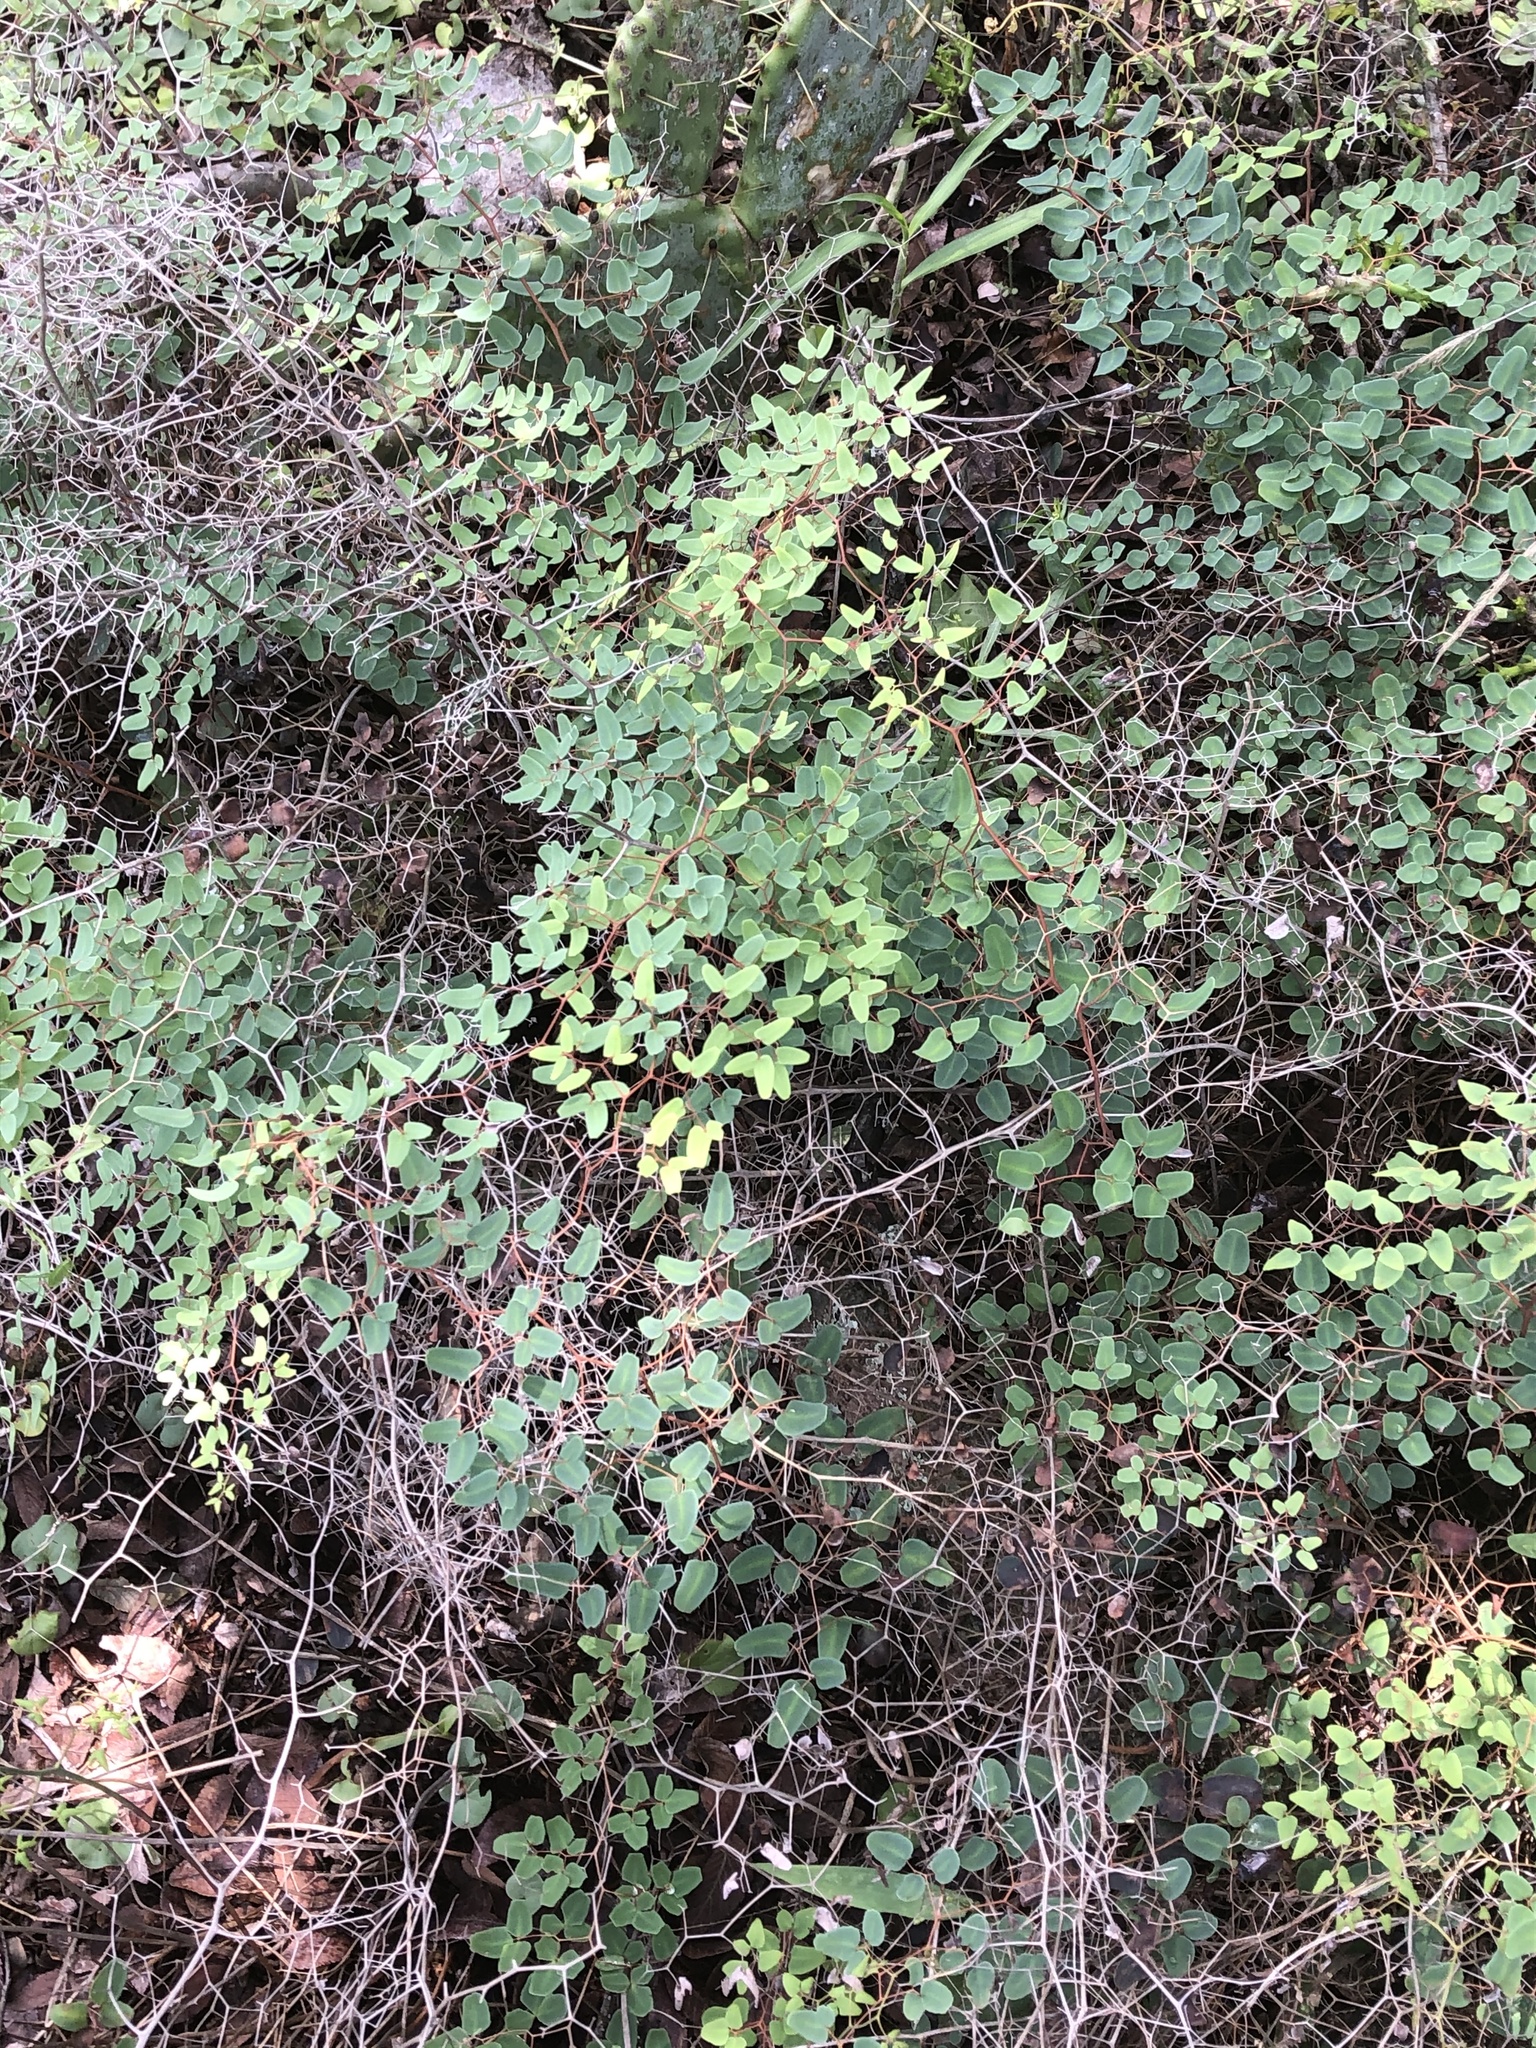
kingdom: Plantae
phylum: Tracheophyta
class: Polypodiopsida
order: Polypodiales
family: Pteridaceae
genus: Pellaea
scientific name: Pellaea ovata
